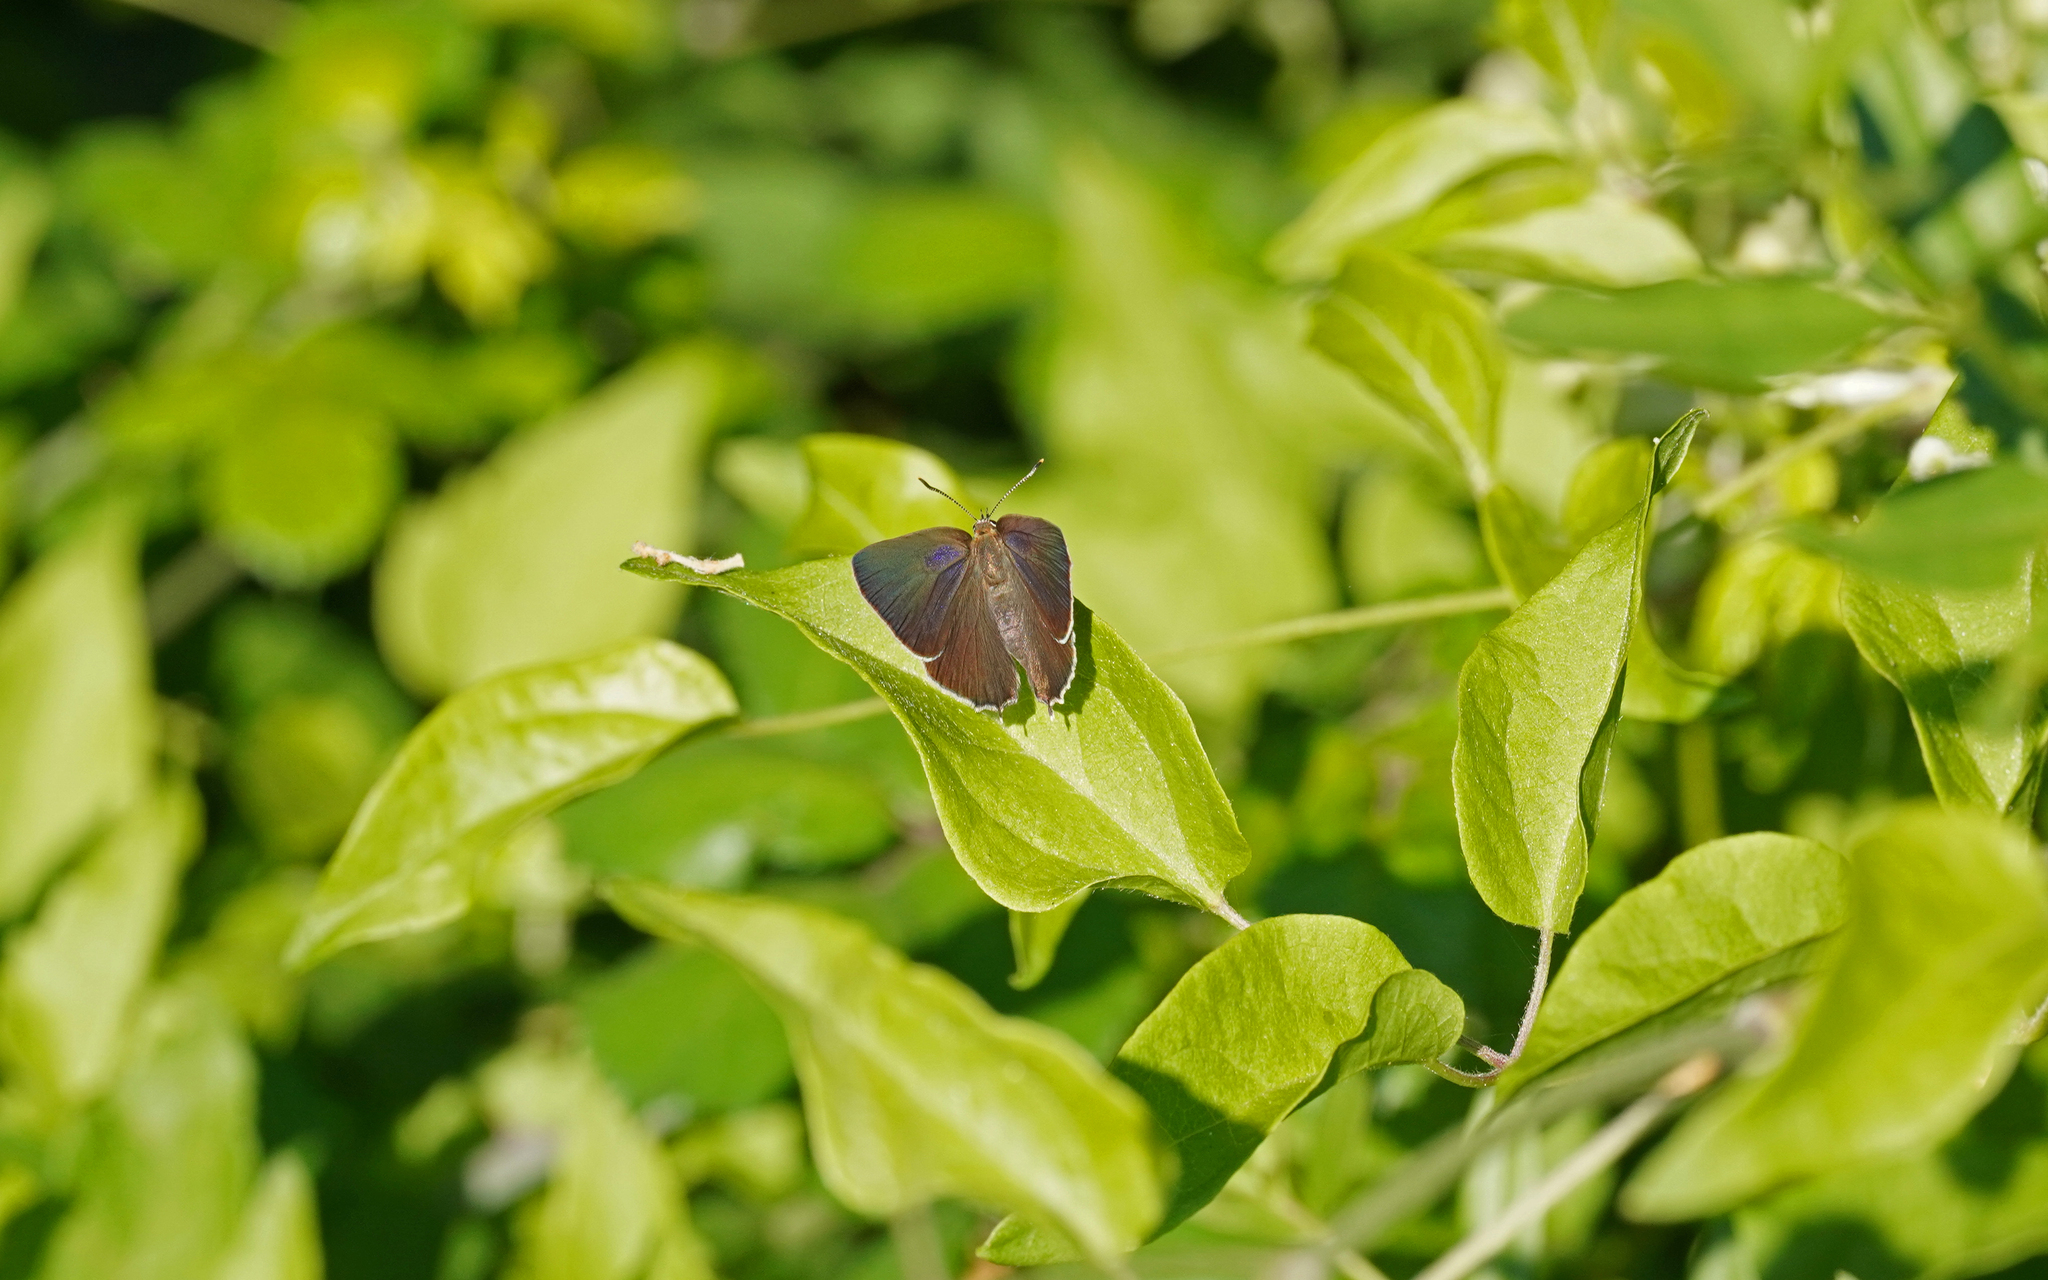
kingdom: Animalia
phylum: Arthropoda
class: Insecta
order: Lepidoptera
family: Lycaenidae
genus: Quercusia
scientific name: Quercusia quercus
